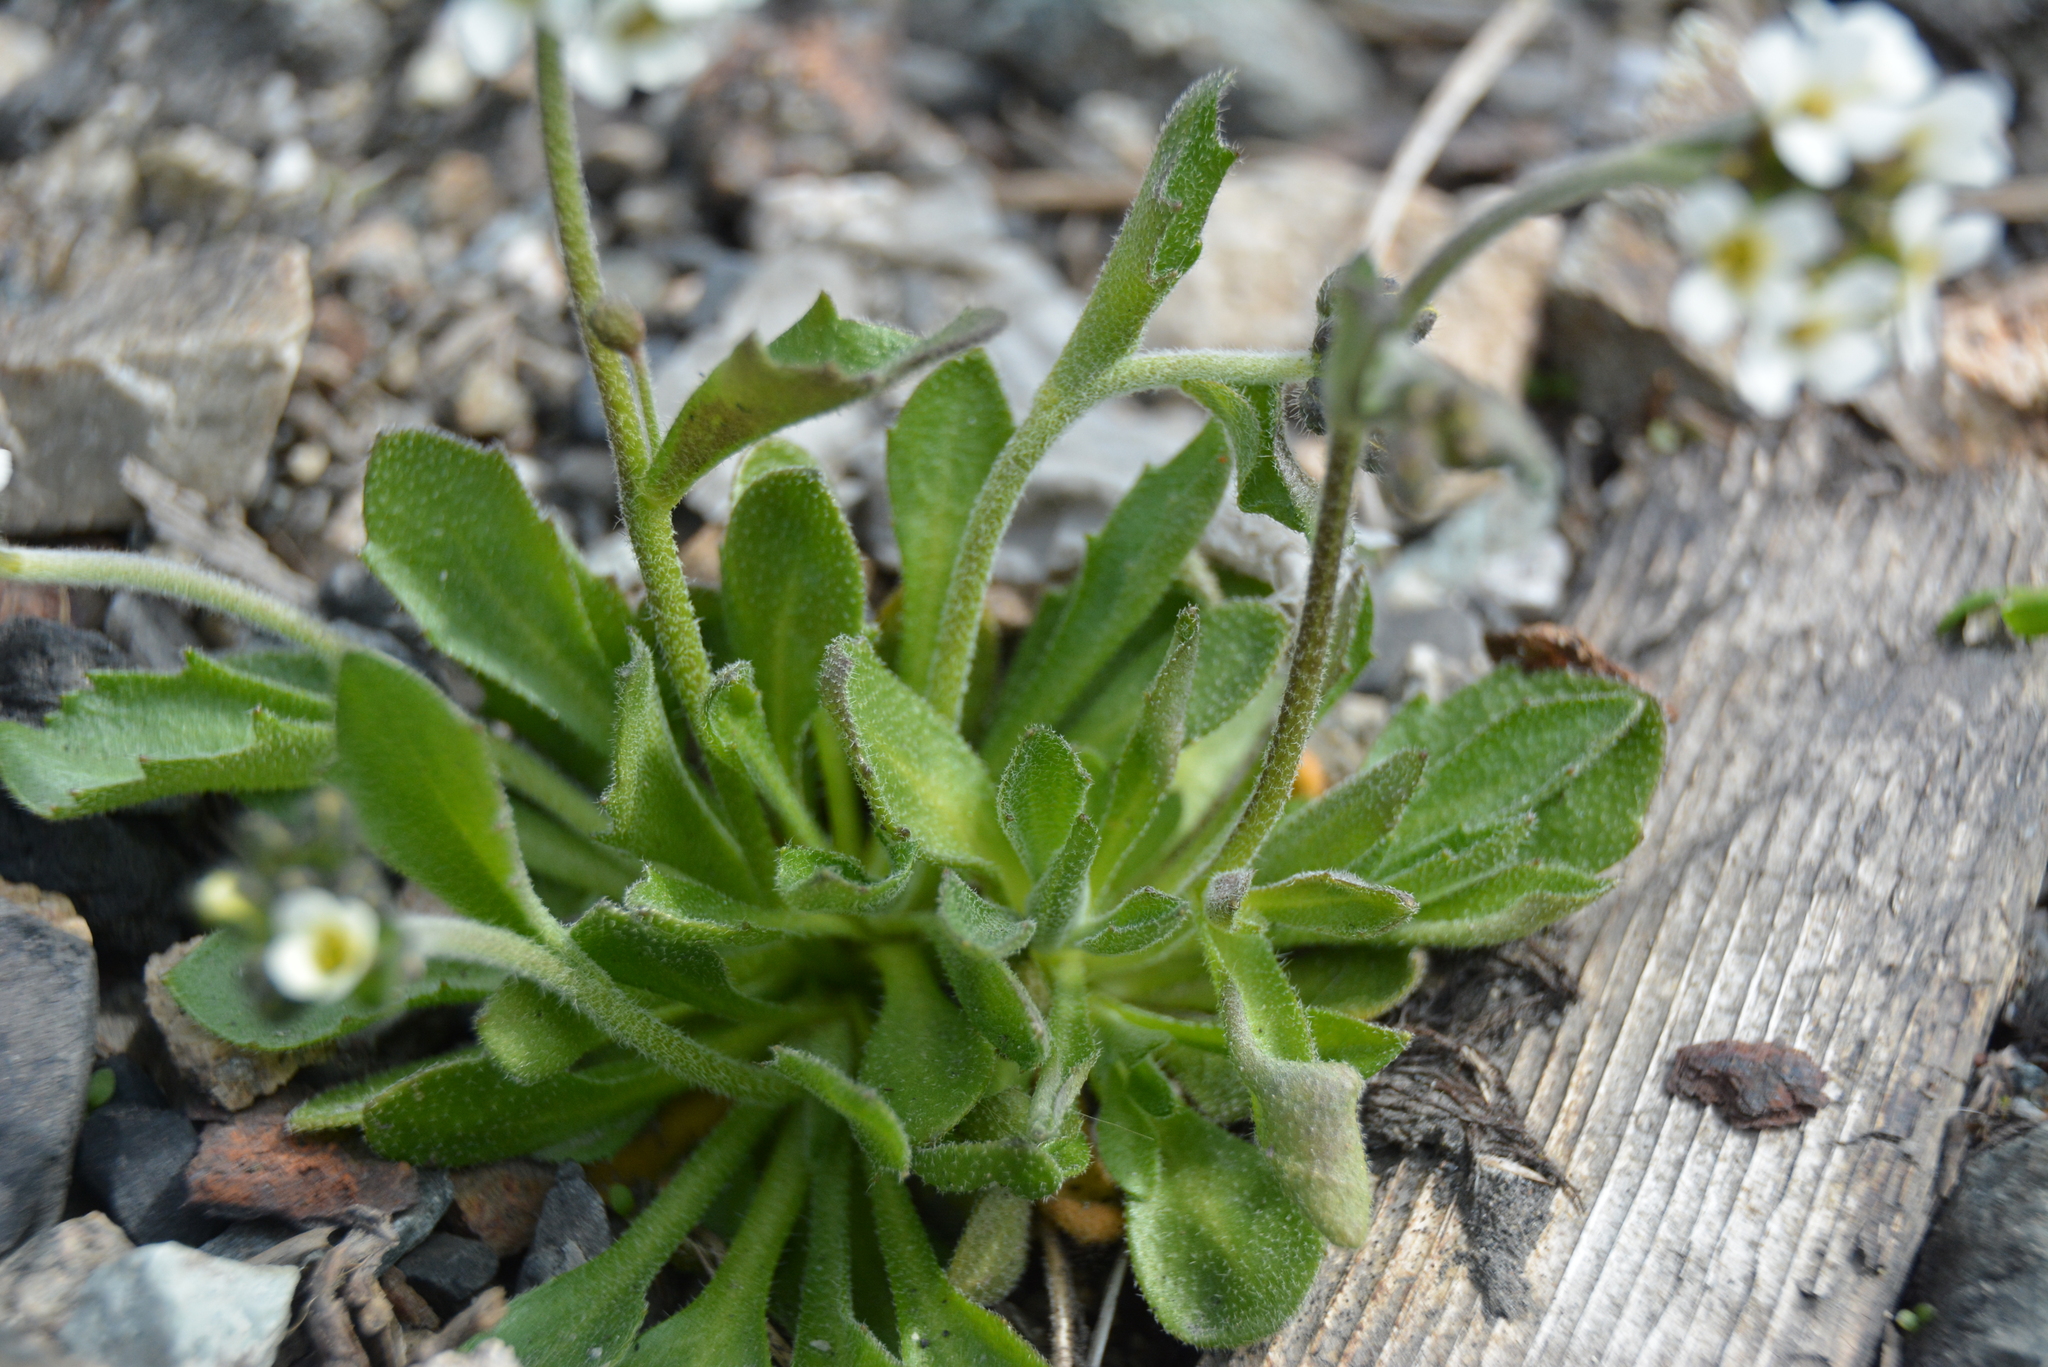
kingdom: Plantae
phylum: Tracheophyta
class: Magnoliopsida
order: Brassicales
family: Brassicaceae
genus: Draba
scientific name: Draba hirta
